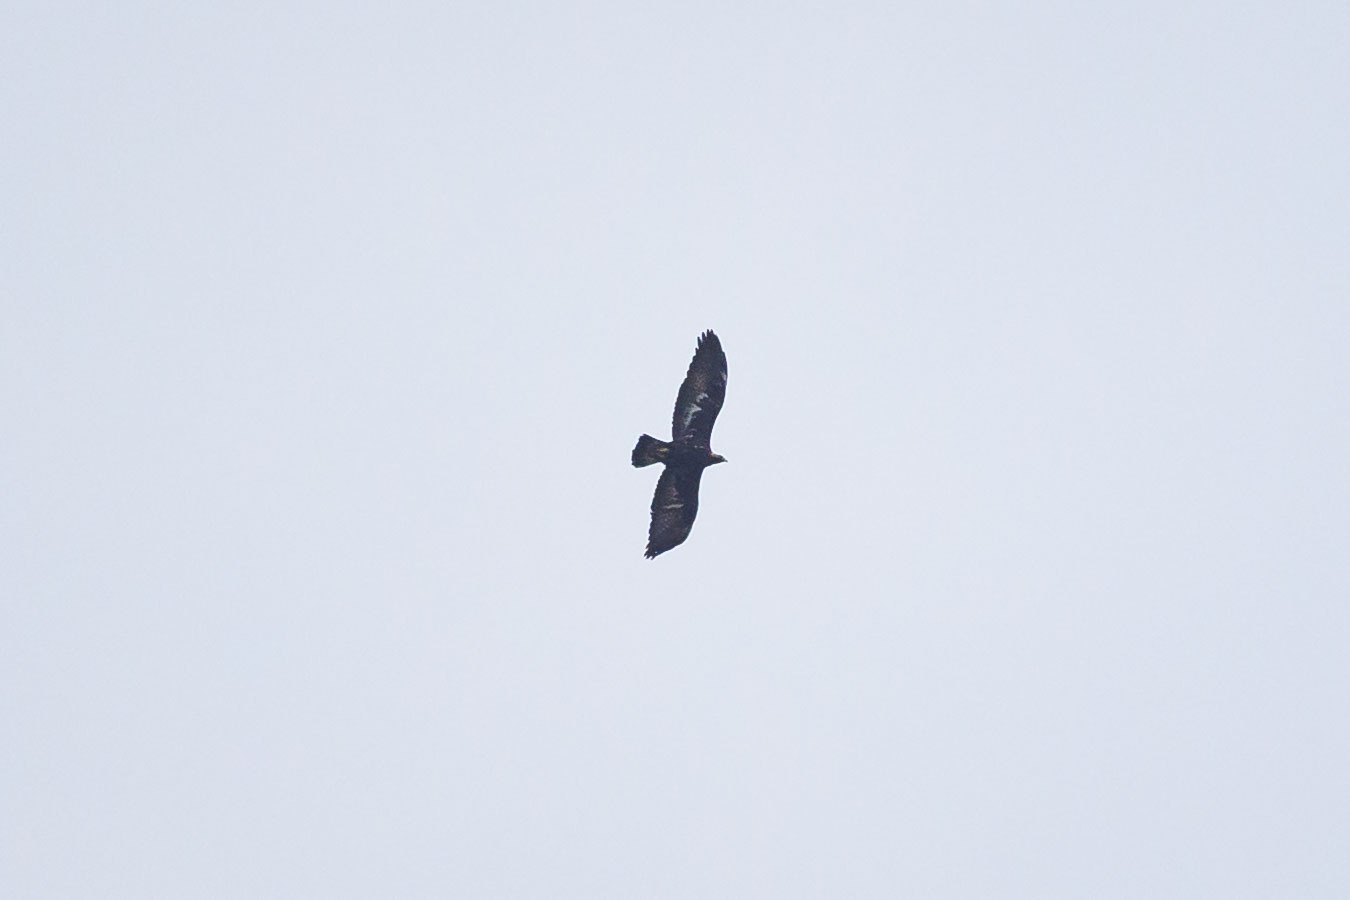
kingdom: Animalia
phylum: Chordata
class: Aves
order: Accipitriformes
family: Accipitridae
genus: Aquila
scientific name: Aquila chrysaetos
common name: Golden eagle
